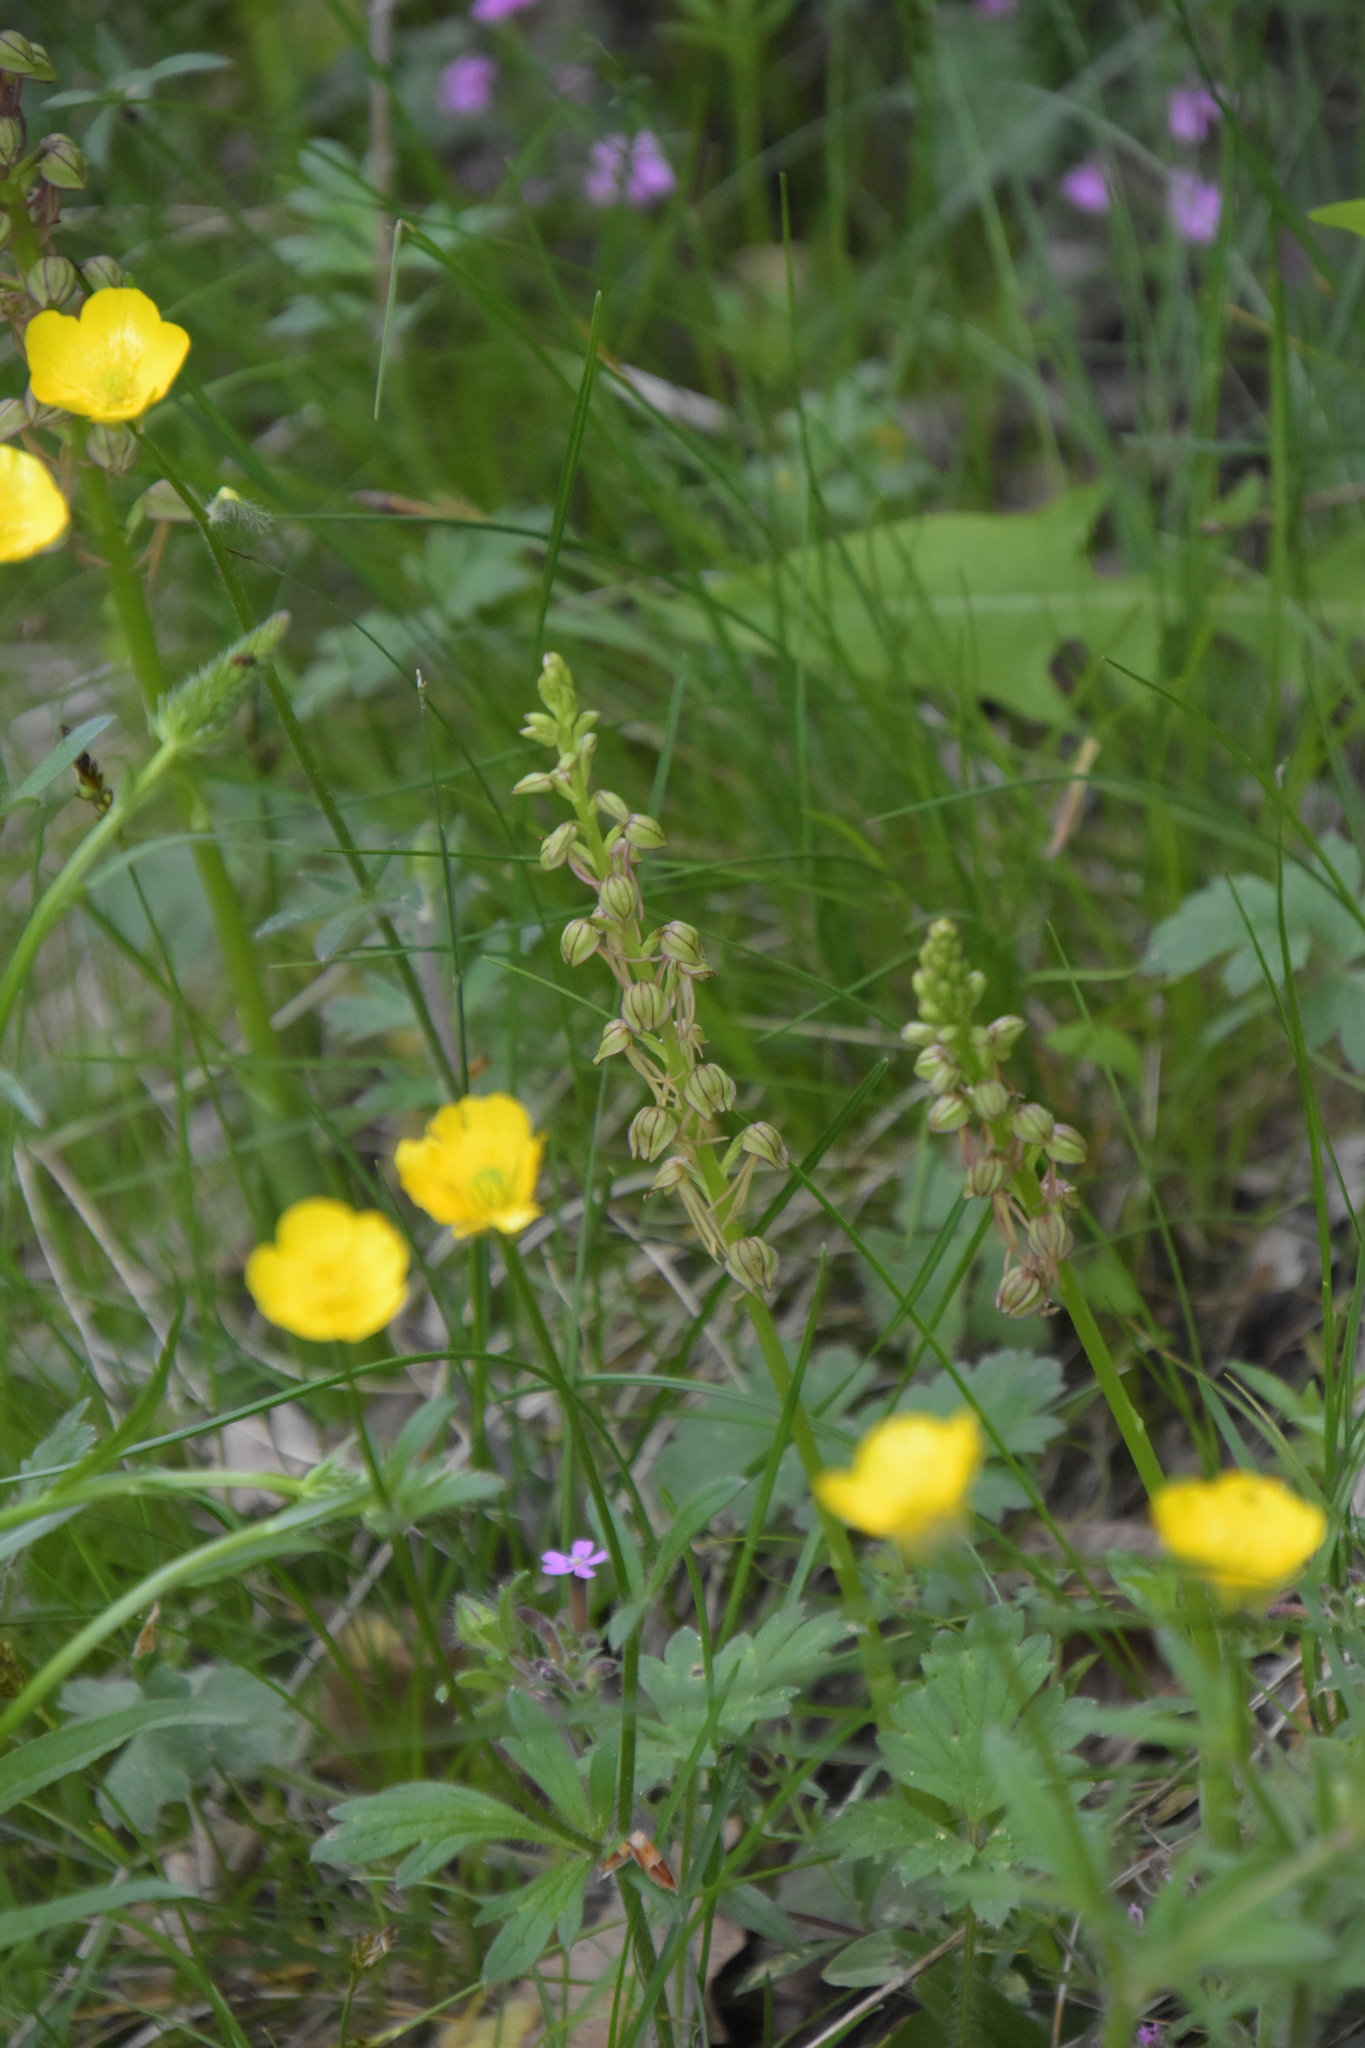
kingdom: Plantae
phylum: Tracheophyta
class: Liliopsida
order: Asparagales
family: Orchidaceae
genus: Orchis
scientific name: Orchis anthropophora
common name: Man orchid
